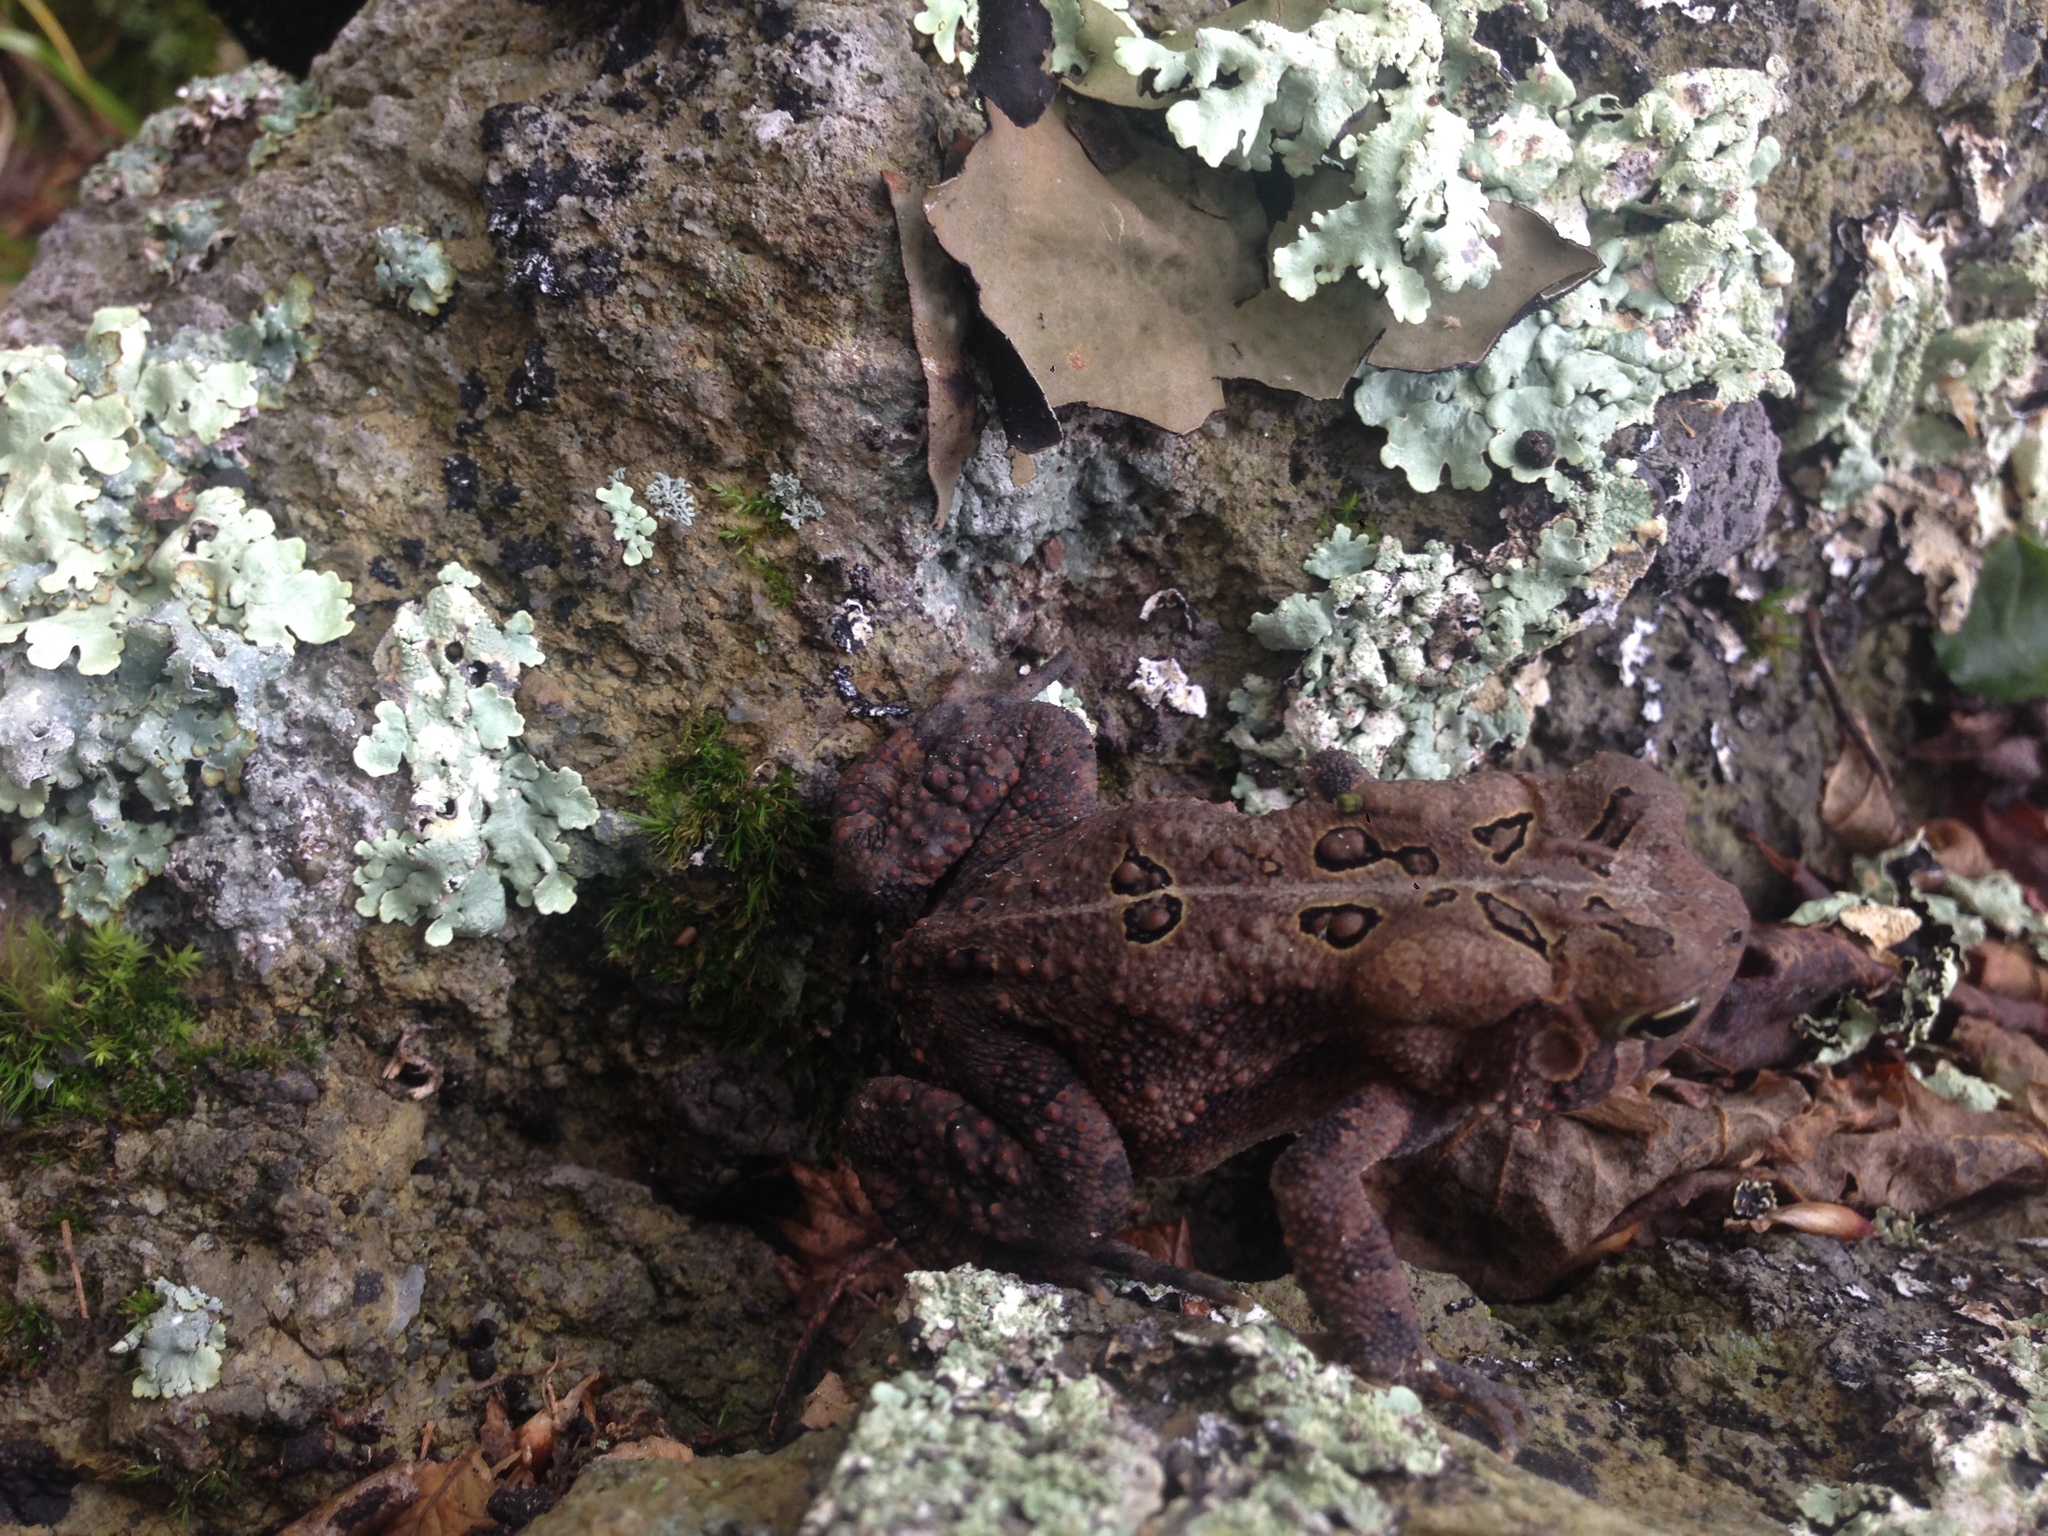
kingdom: Animalia
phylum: Chordata
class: Amphibia
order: Anura
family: Bufonidae
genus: Anaxyrus
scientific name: Anaxyrus americanus
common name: American toad
